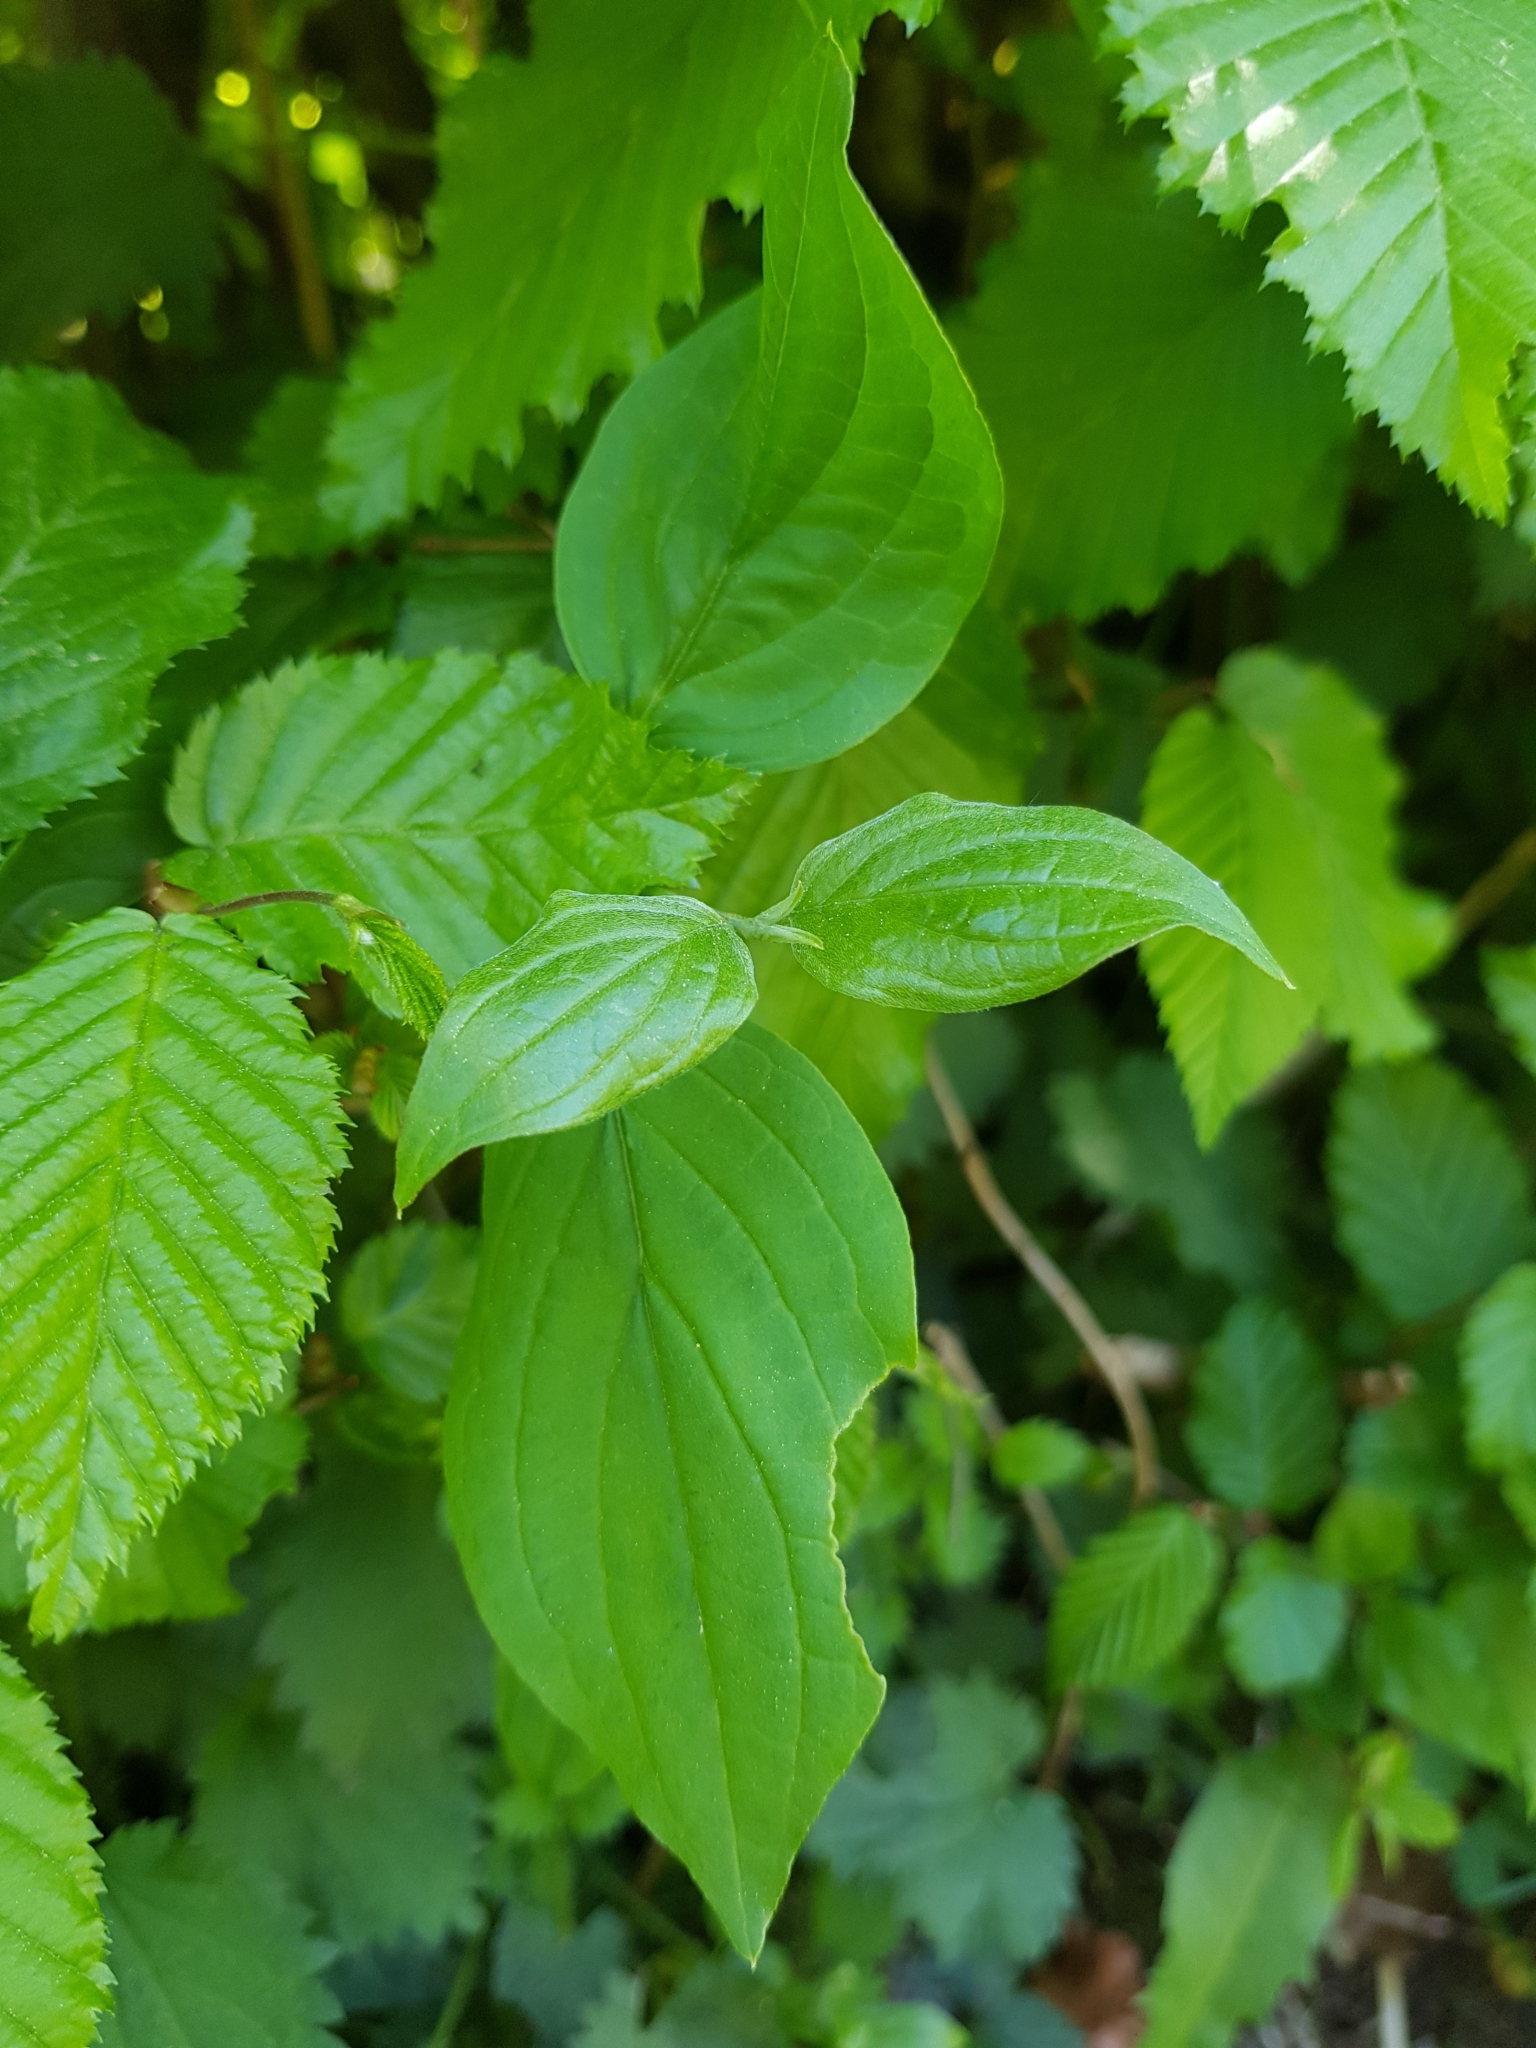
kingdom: Plantae
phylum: Tracheophyta
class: Magnoliopsida
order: Cornales
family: Cornaceae
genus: Cornus
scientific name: Cornus sanguinea
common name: Dogwood
